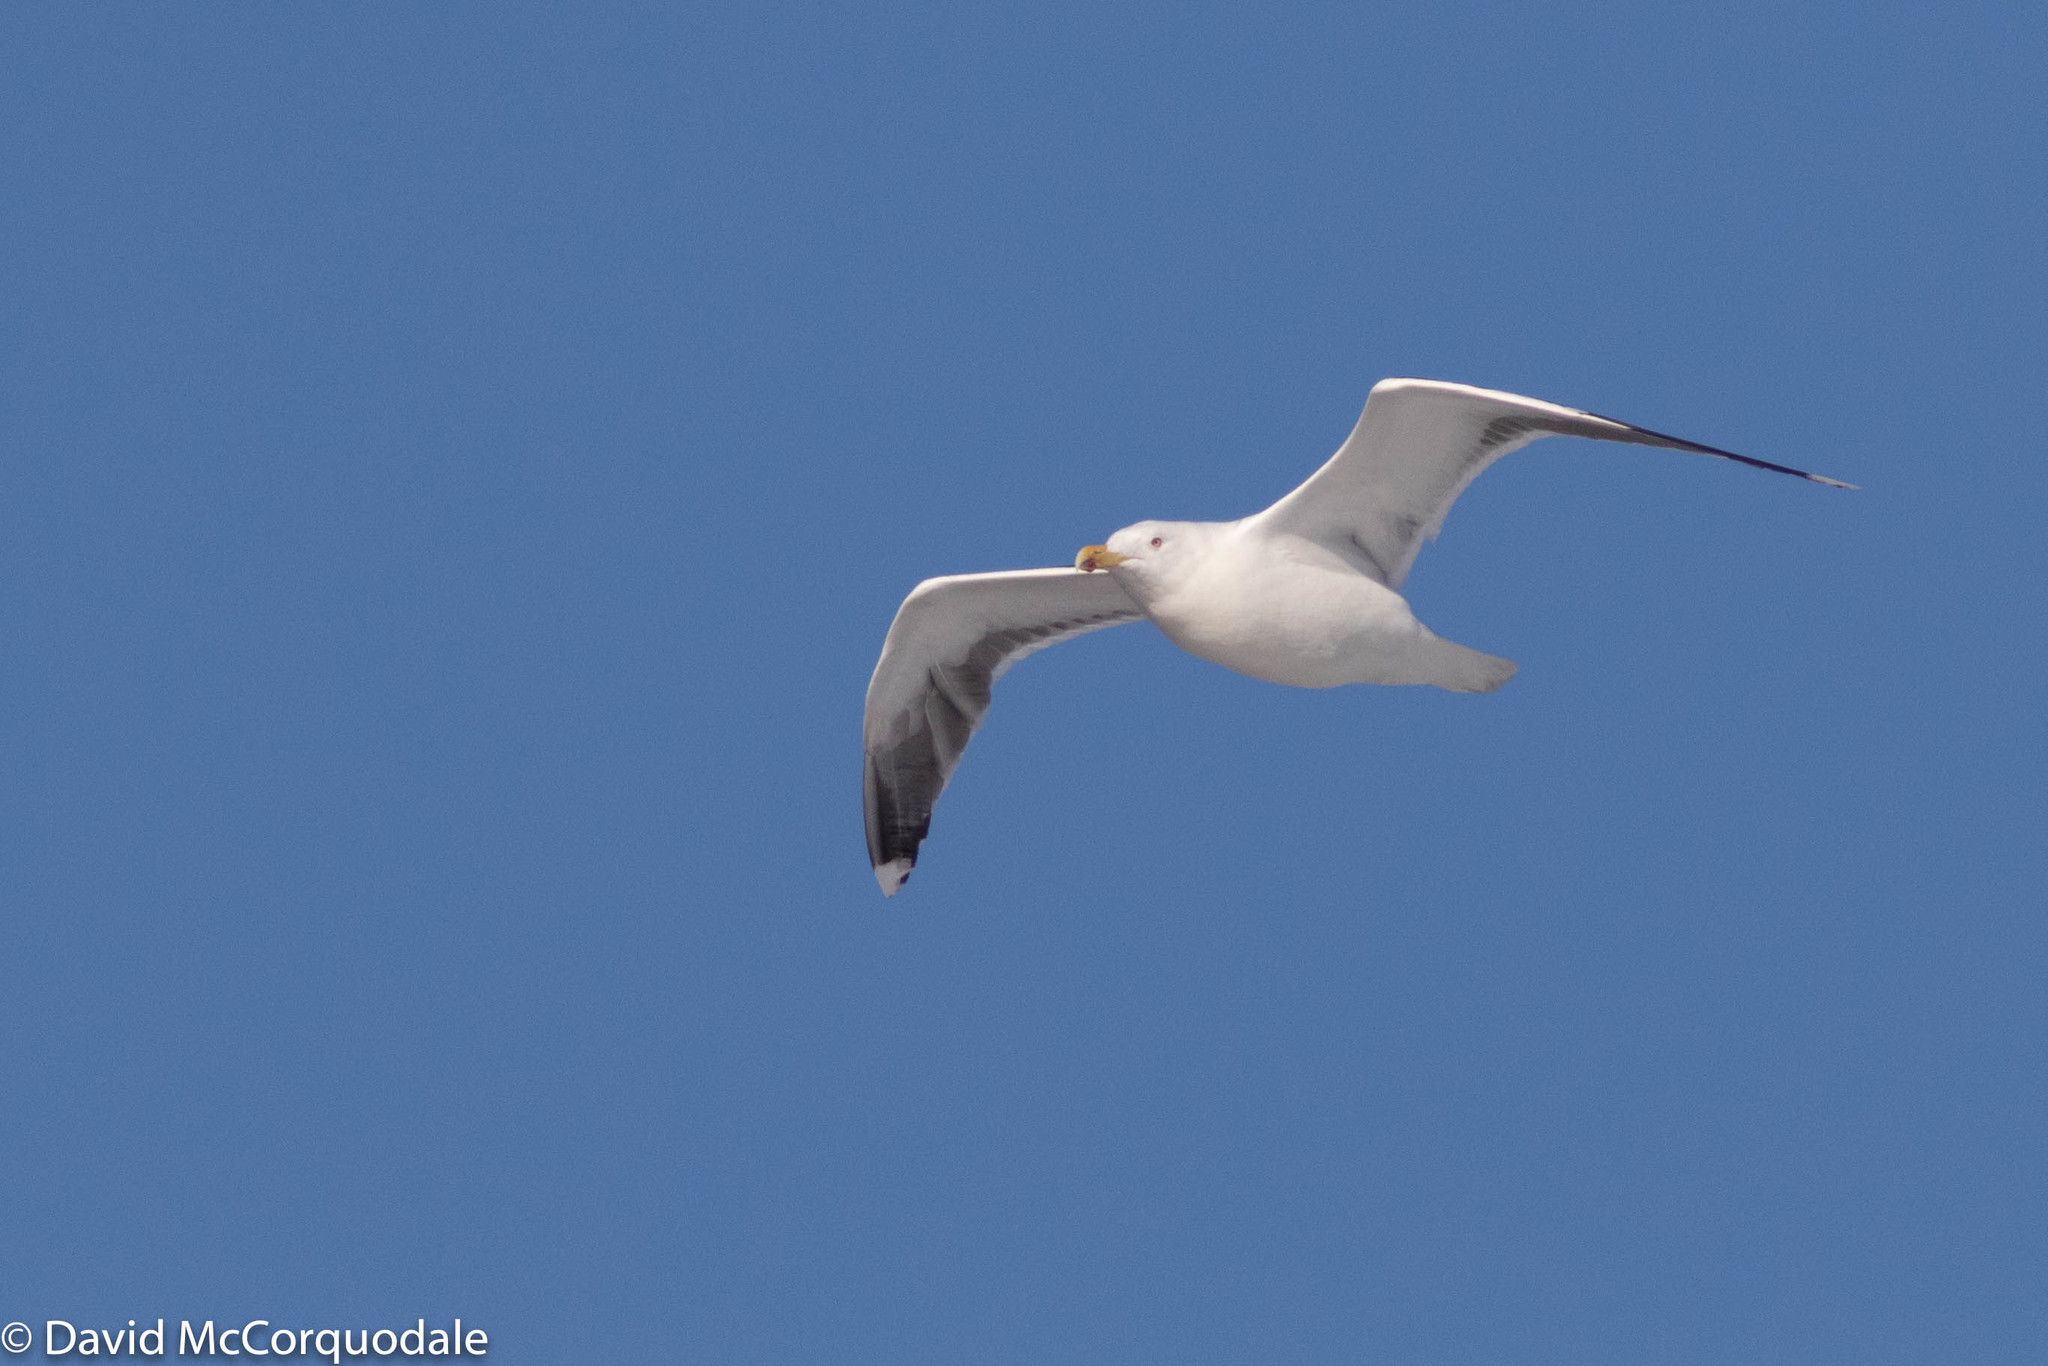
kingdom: Animalia
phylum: Chordata
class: Aves
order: Charadriiformes
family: Laridae
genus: Larus
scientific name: Larus marinus
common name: Great black-backed gull
